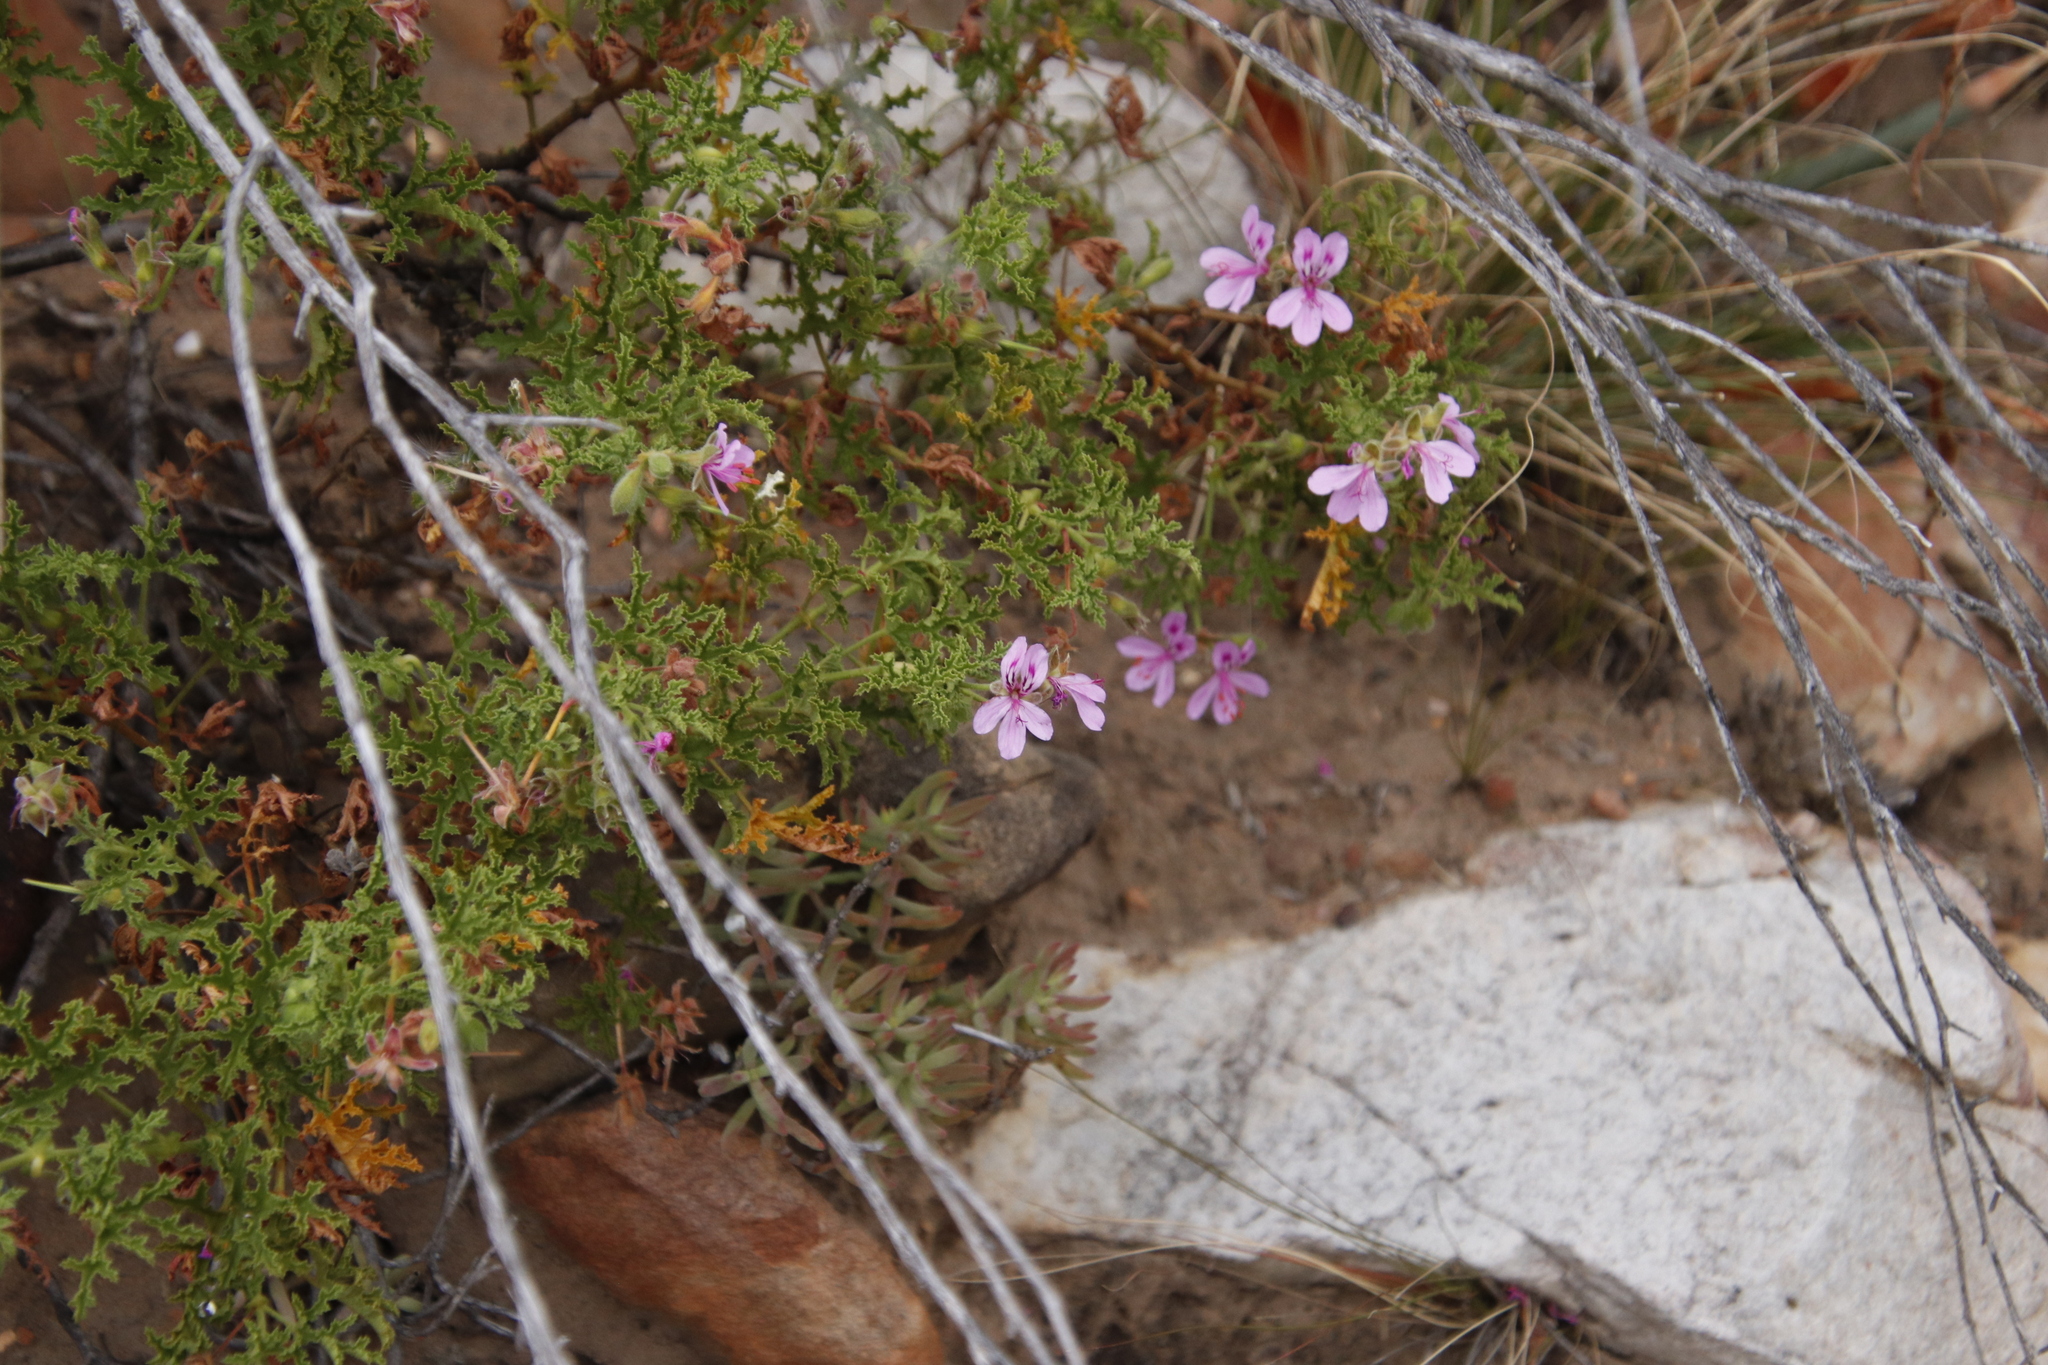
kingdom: Plantae
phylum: Tracheophyta
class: Magnoliopsida
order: Geraniales
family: Geraniaceae
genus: Pelargonium
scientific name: Pelargonium quercifolium
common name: Oakleaf geranium
